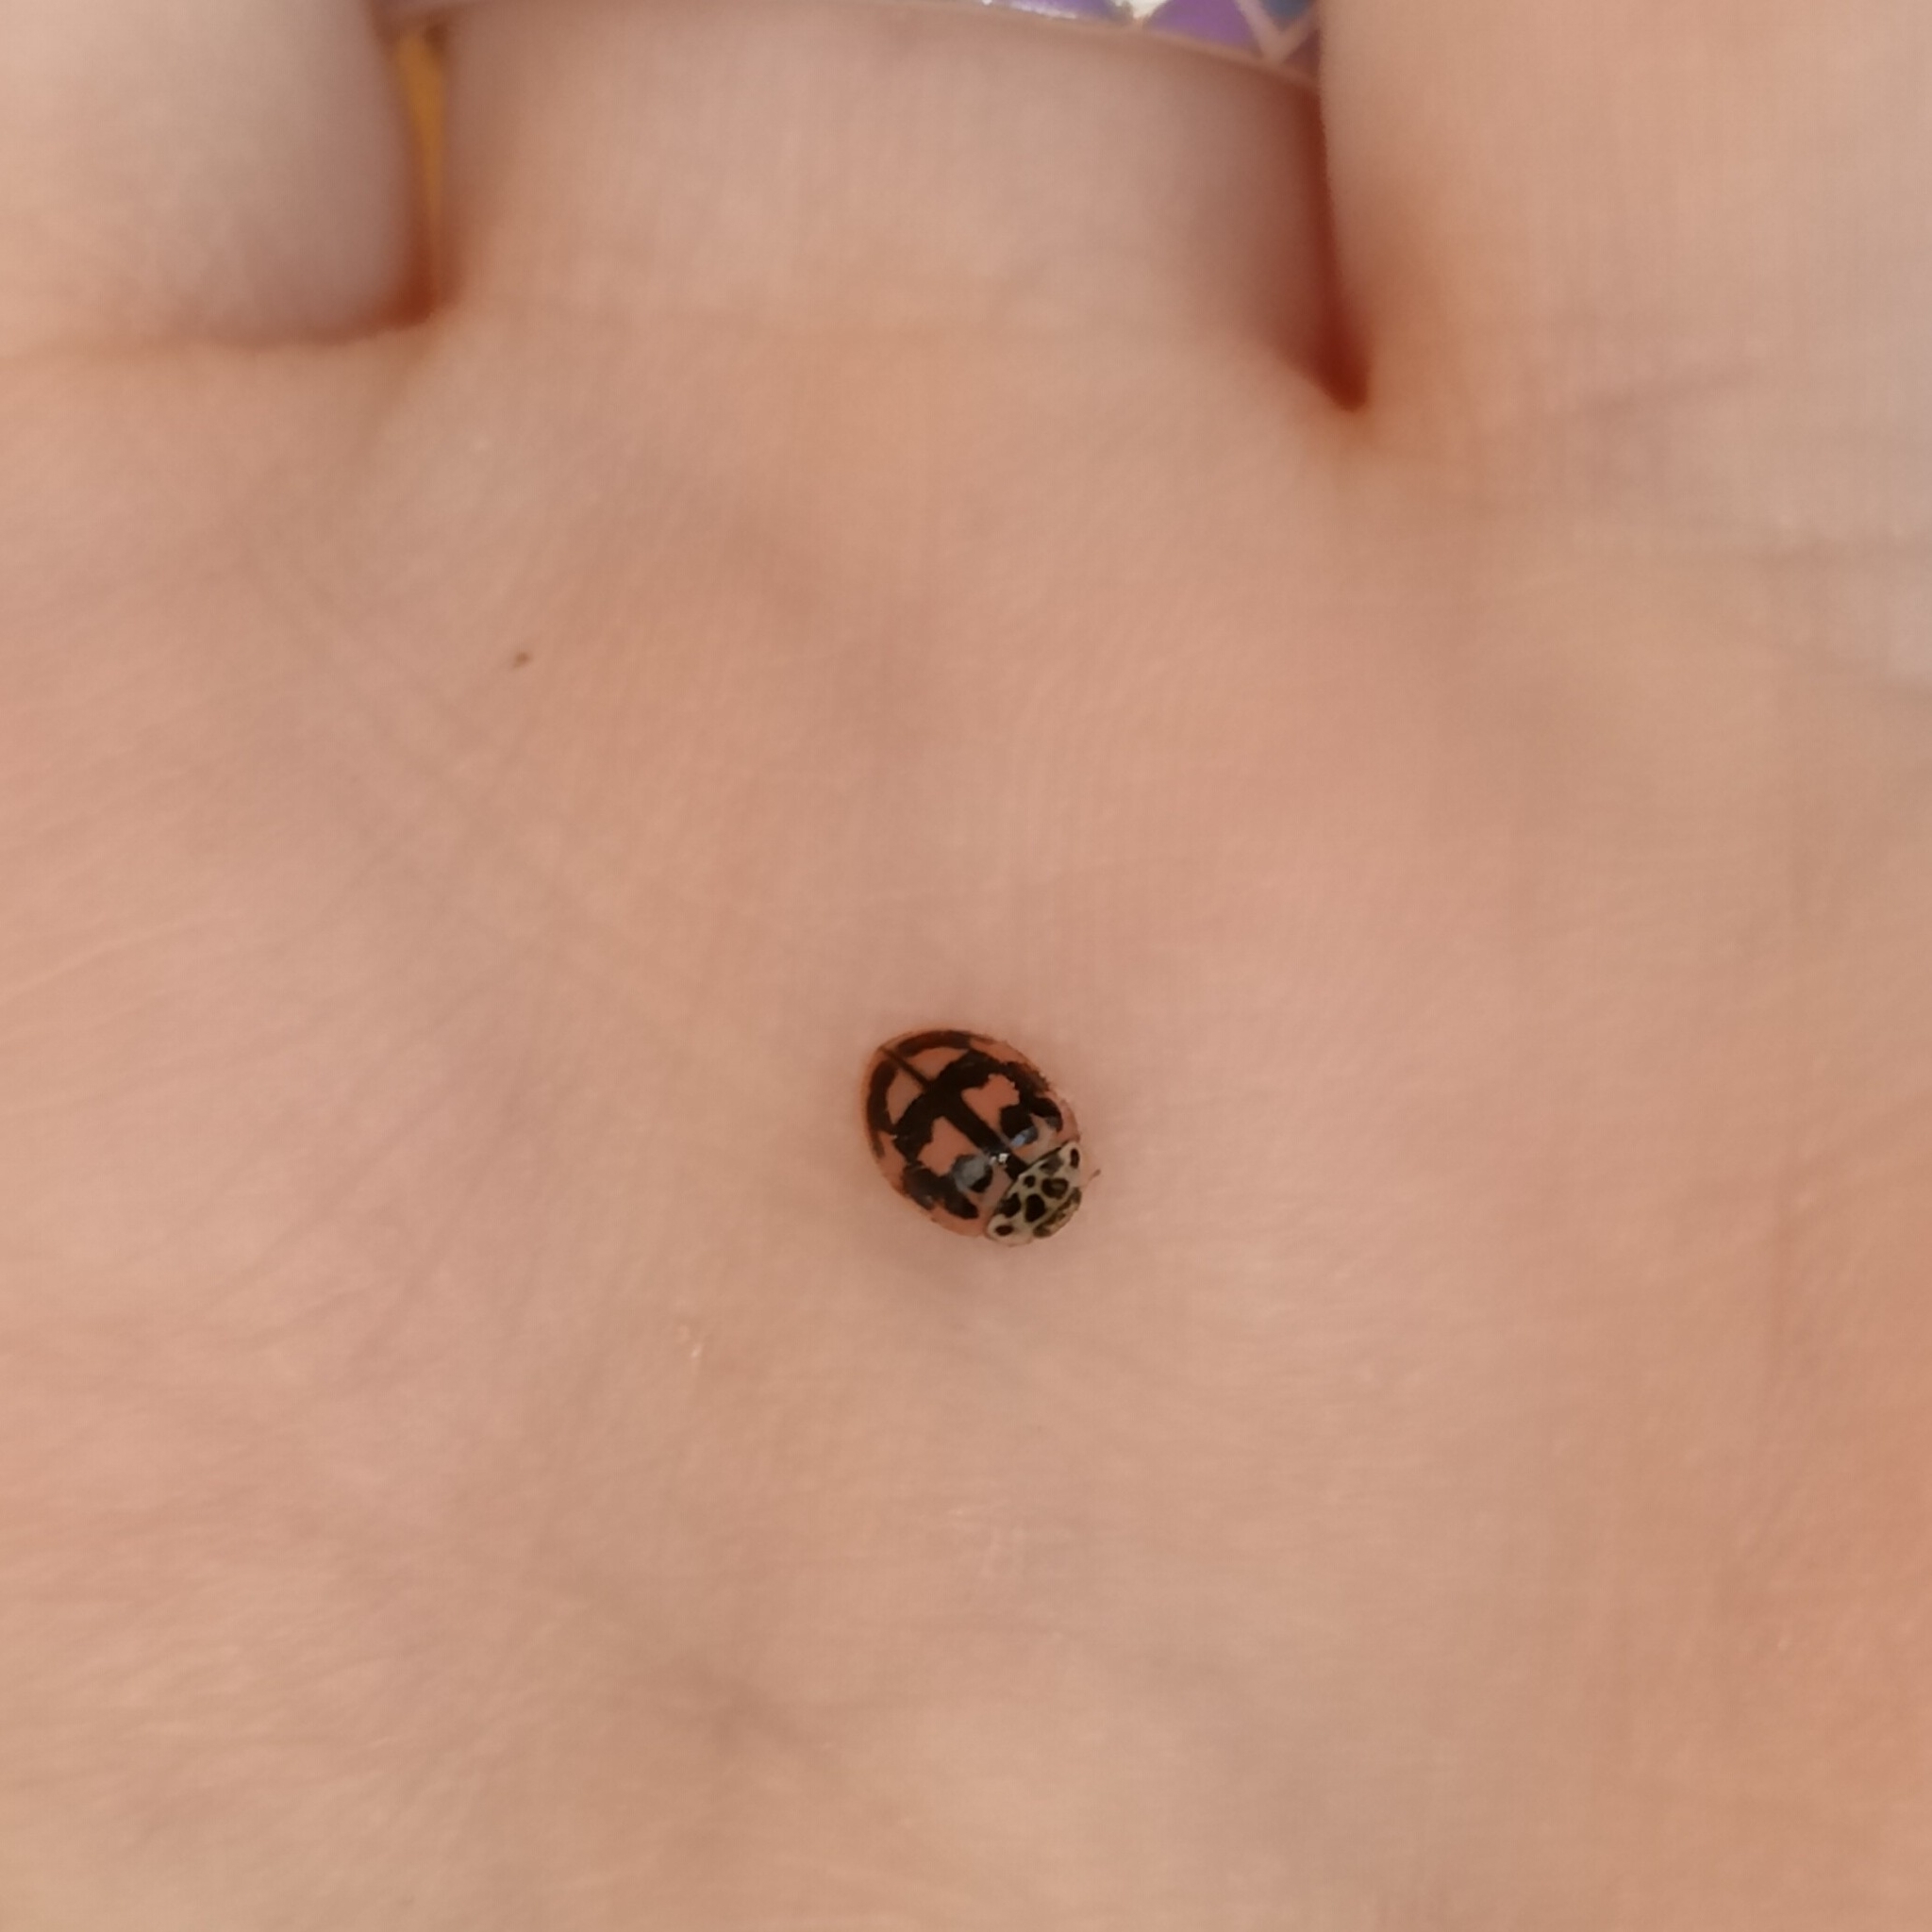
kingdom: Animalia
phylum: Arthropoda
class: Insecta
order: Coleoptera
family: Coccinellidae
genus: Oenopia
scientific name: Oenopia conglobata
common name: Ladybird beetle
